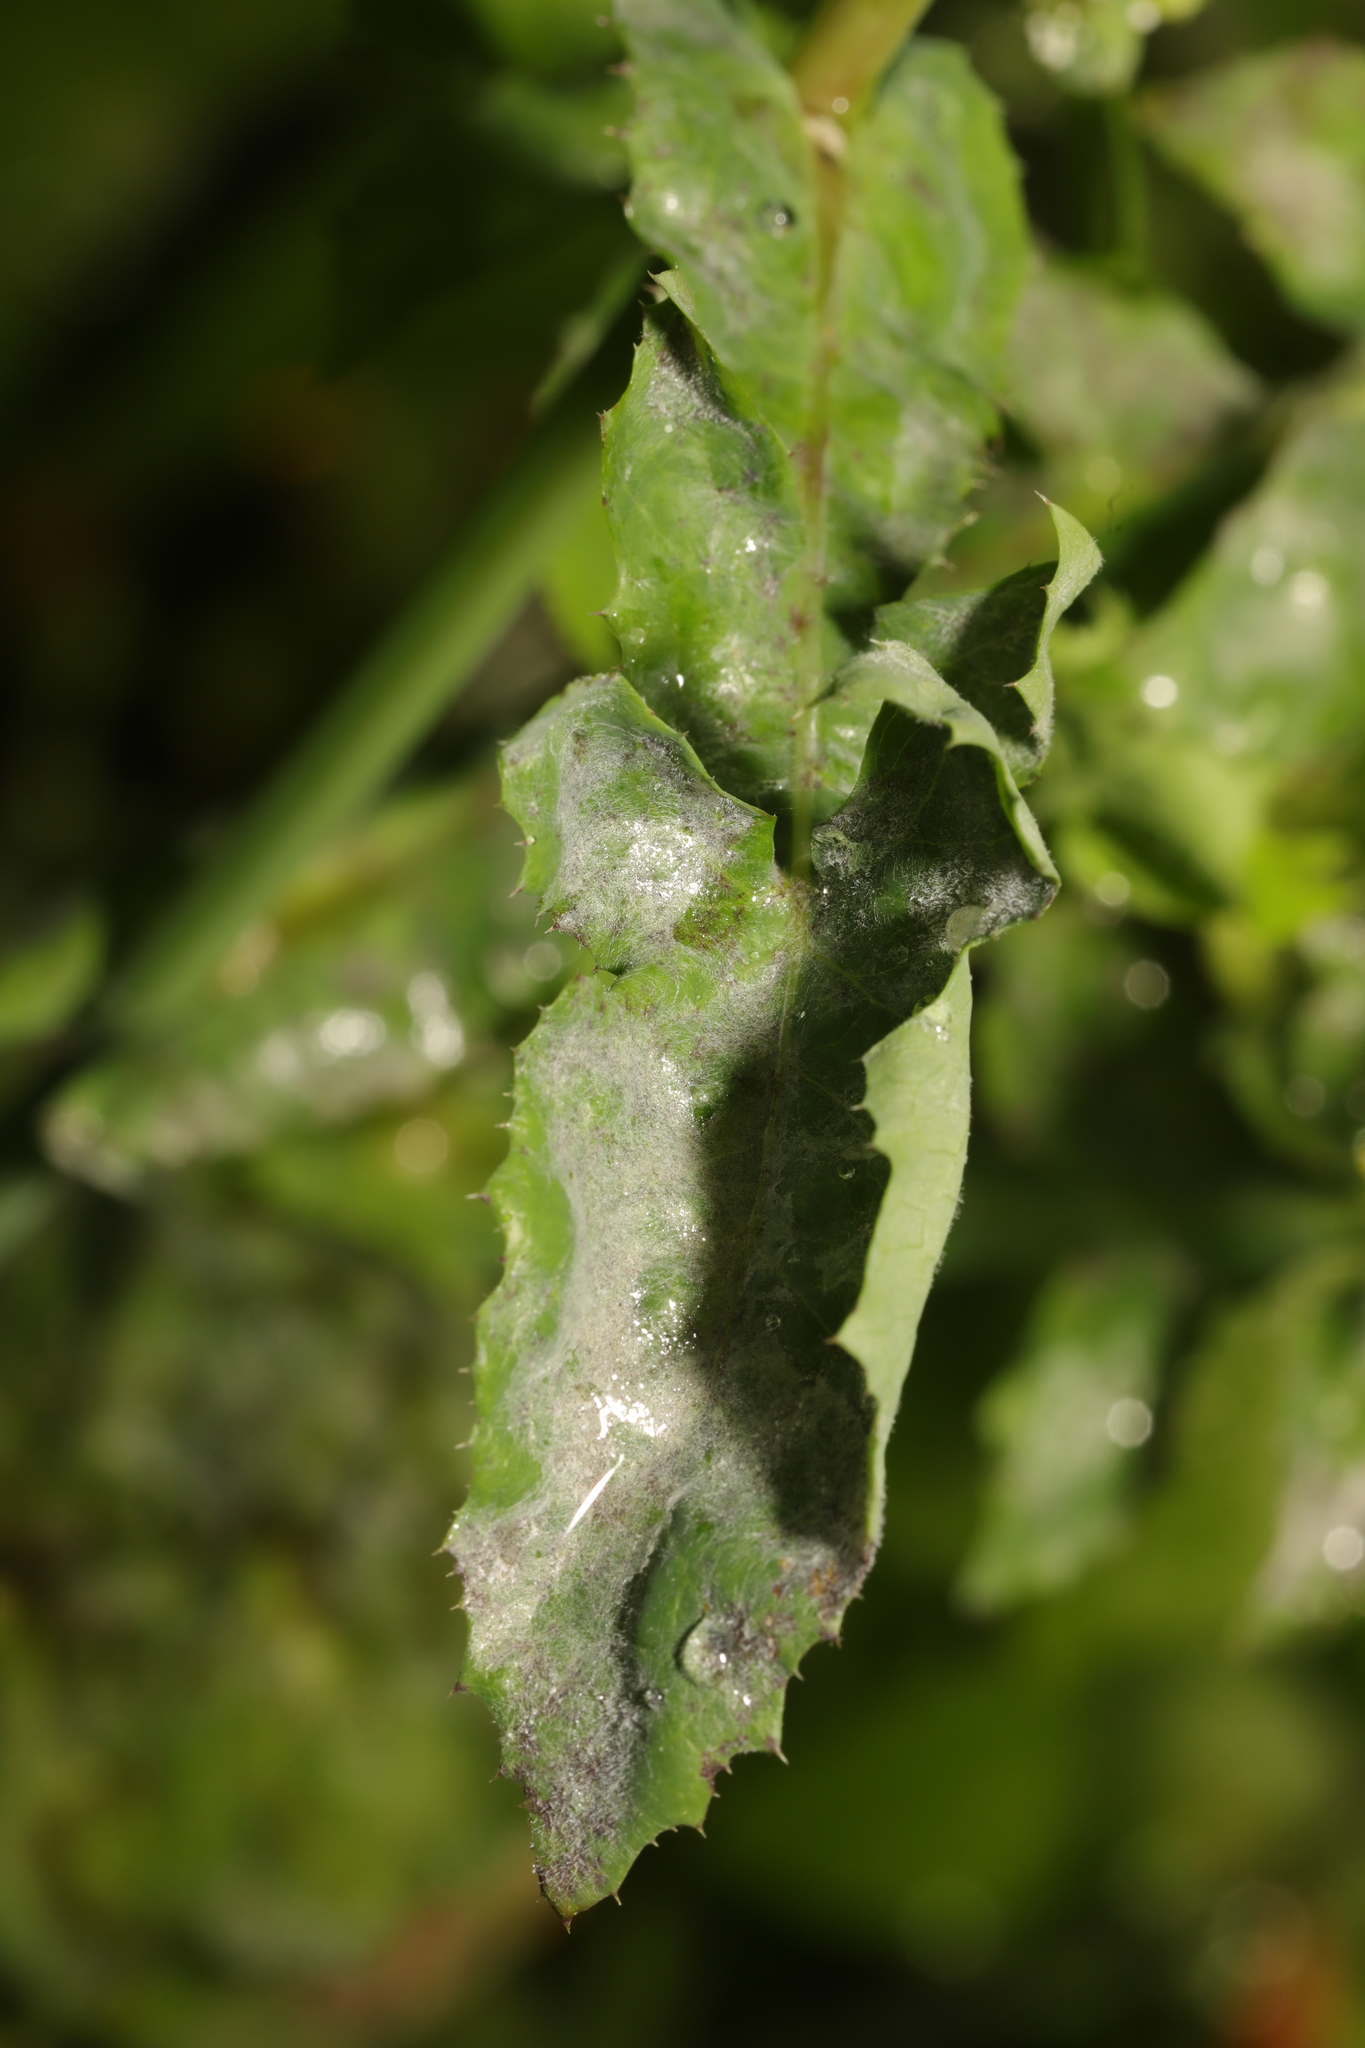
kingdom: Fungi
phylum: Ascomycota
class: Leotiomycetes
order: Helotiales
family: Erysiphaceae
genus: Golovinomyces
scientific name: Golovinomyces sonchicola
